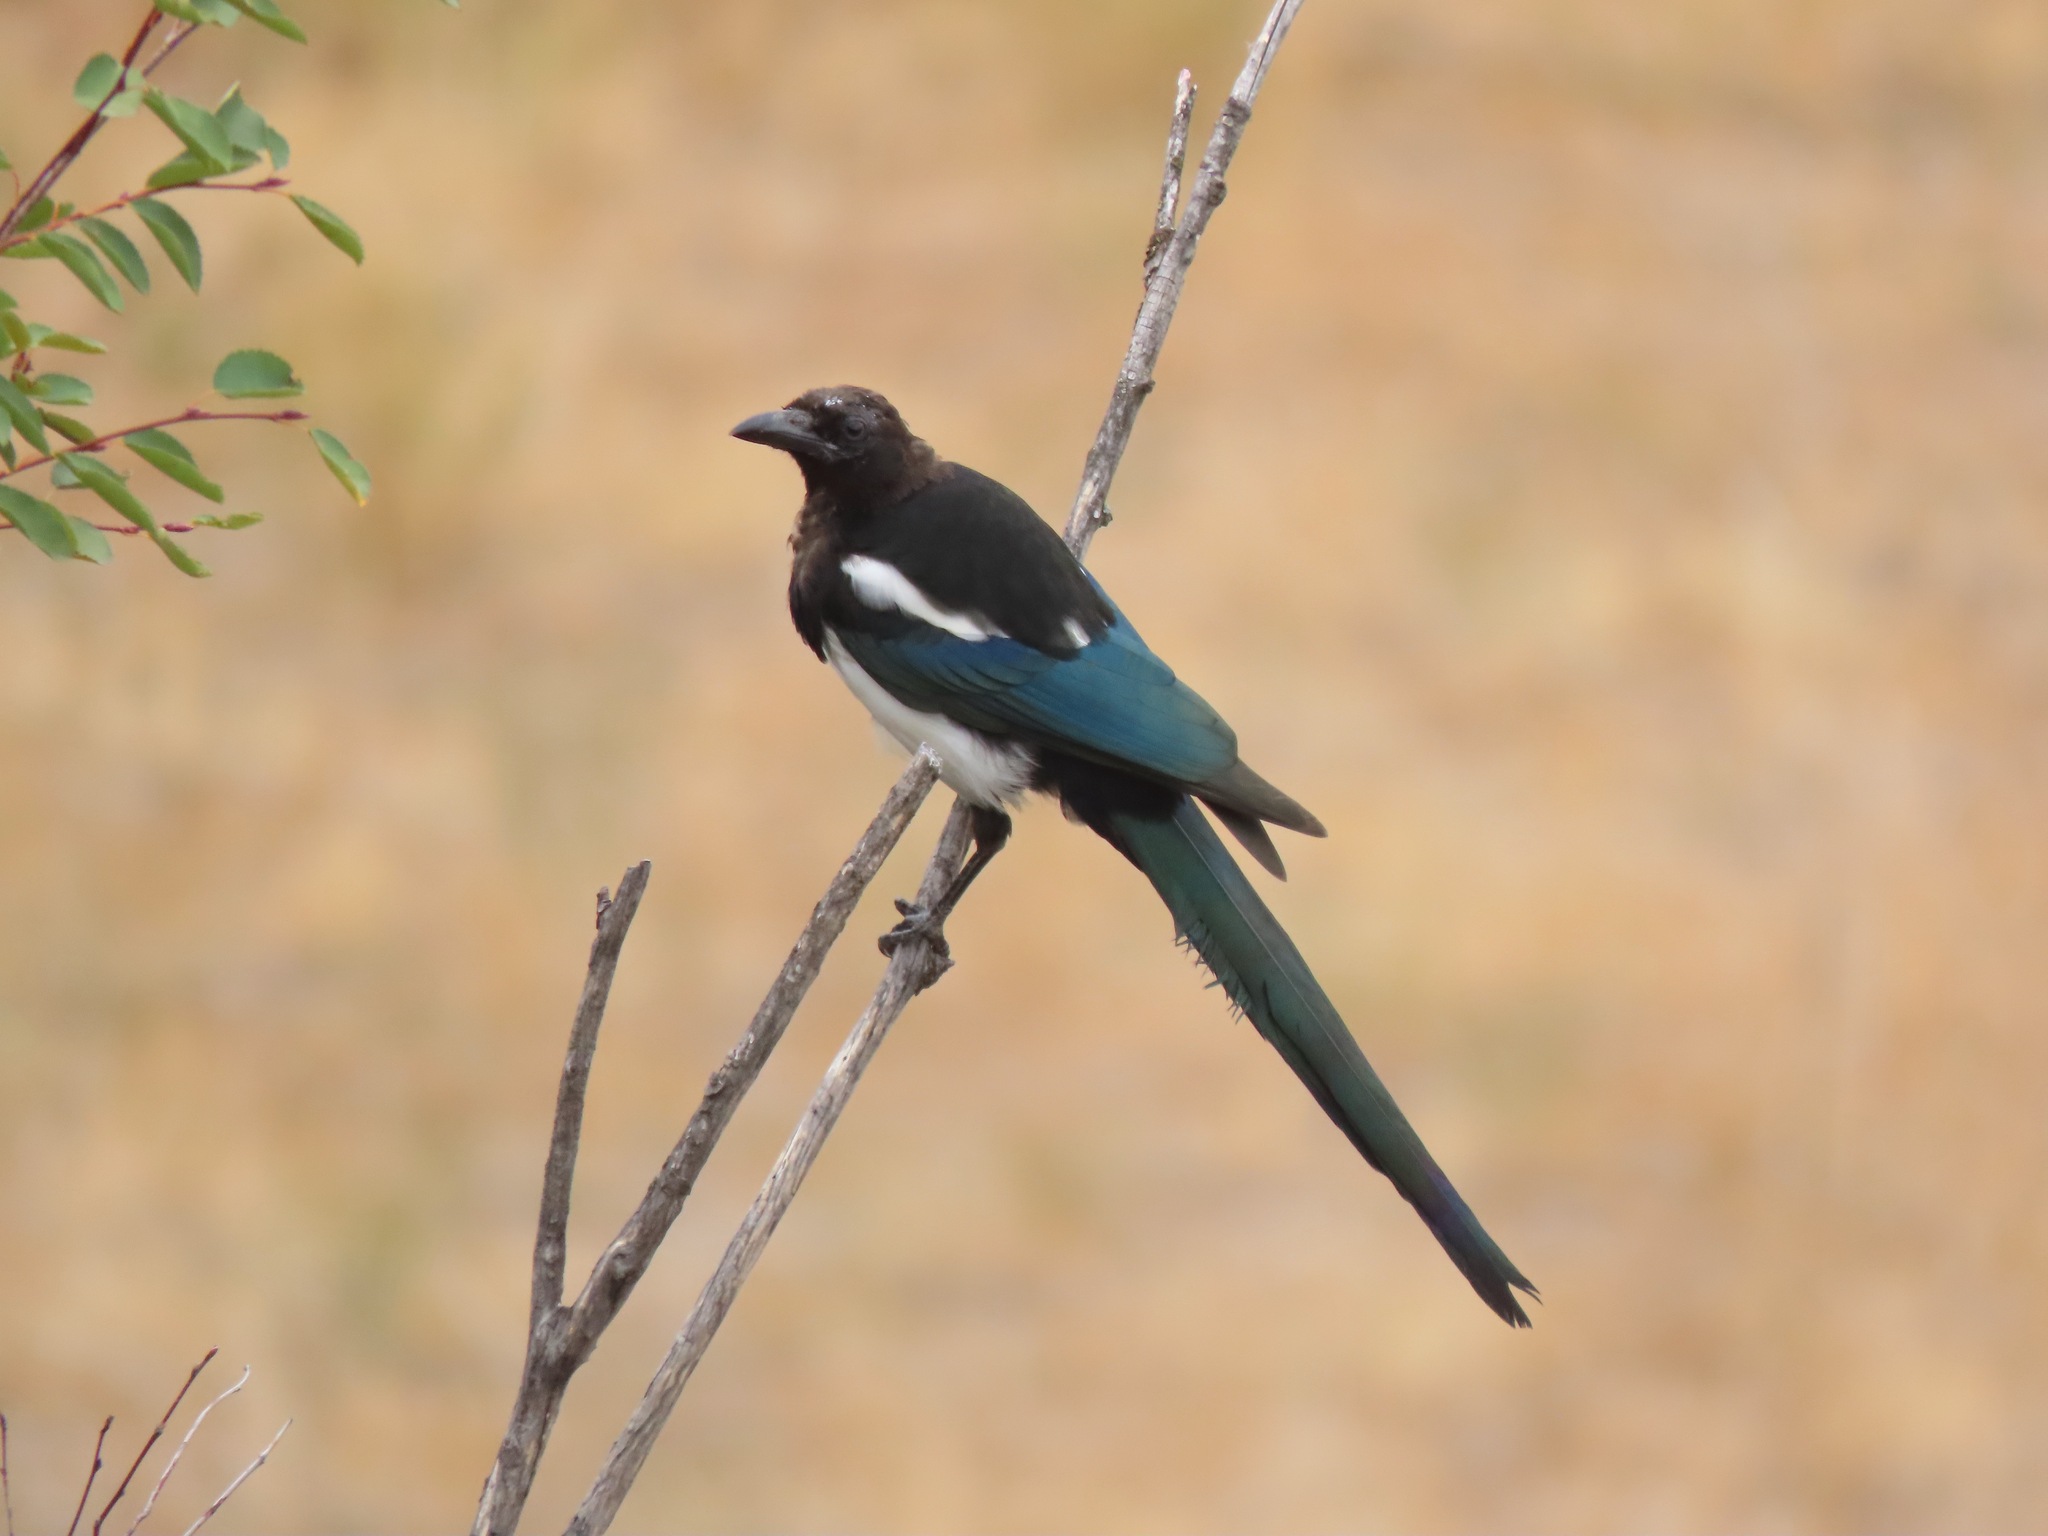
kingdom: Animalia
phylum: Chordata
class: Aves
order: Passeriformes
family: Corvidae
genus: Pica
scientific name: Pica hudsonia
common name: Black-billed magpie
